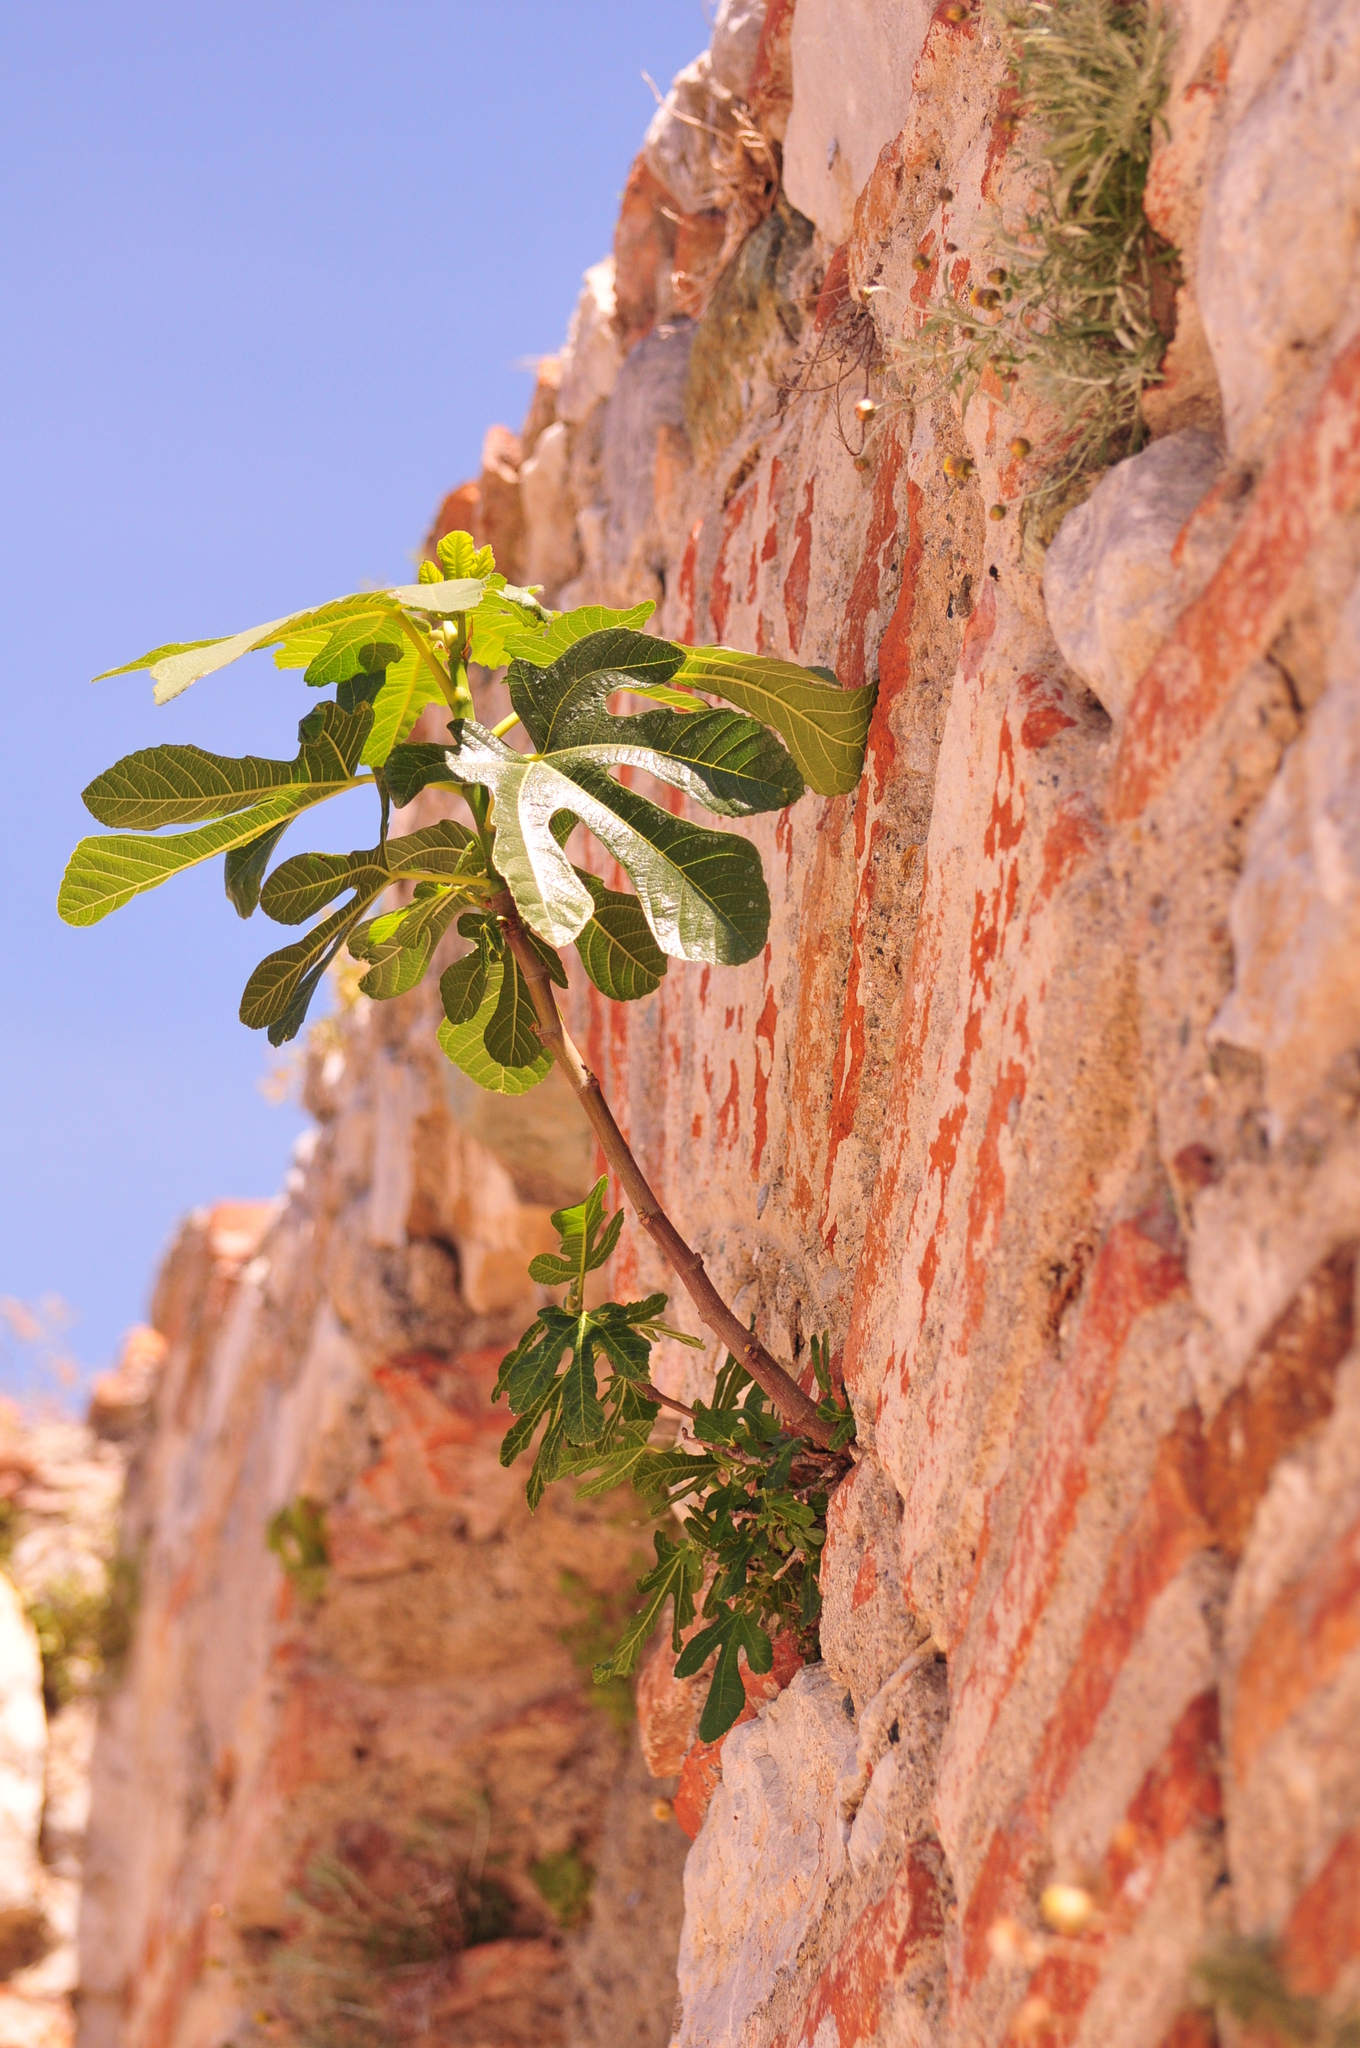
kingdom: Plantae
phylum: Tracheophyta
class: Magnoliopsida
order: Rosales
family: Moraceae
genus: Ficus
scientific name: Ficus carica
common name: Fig
